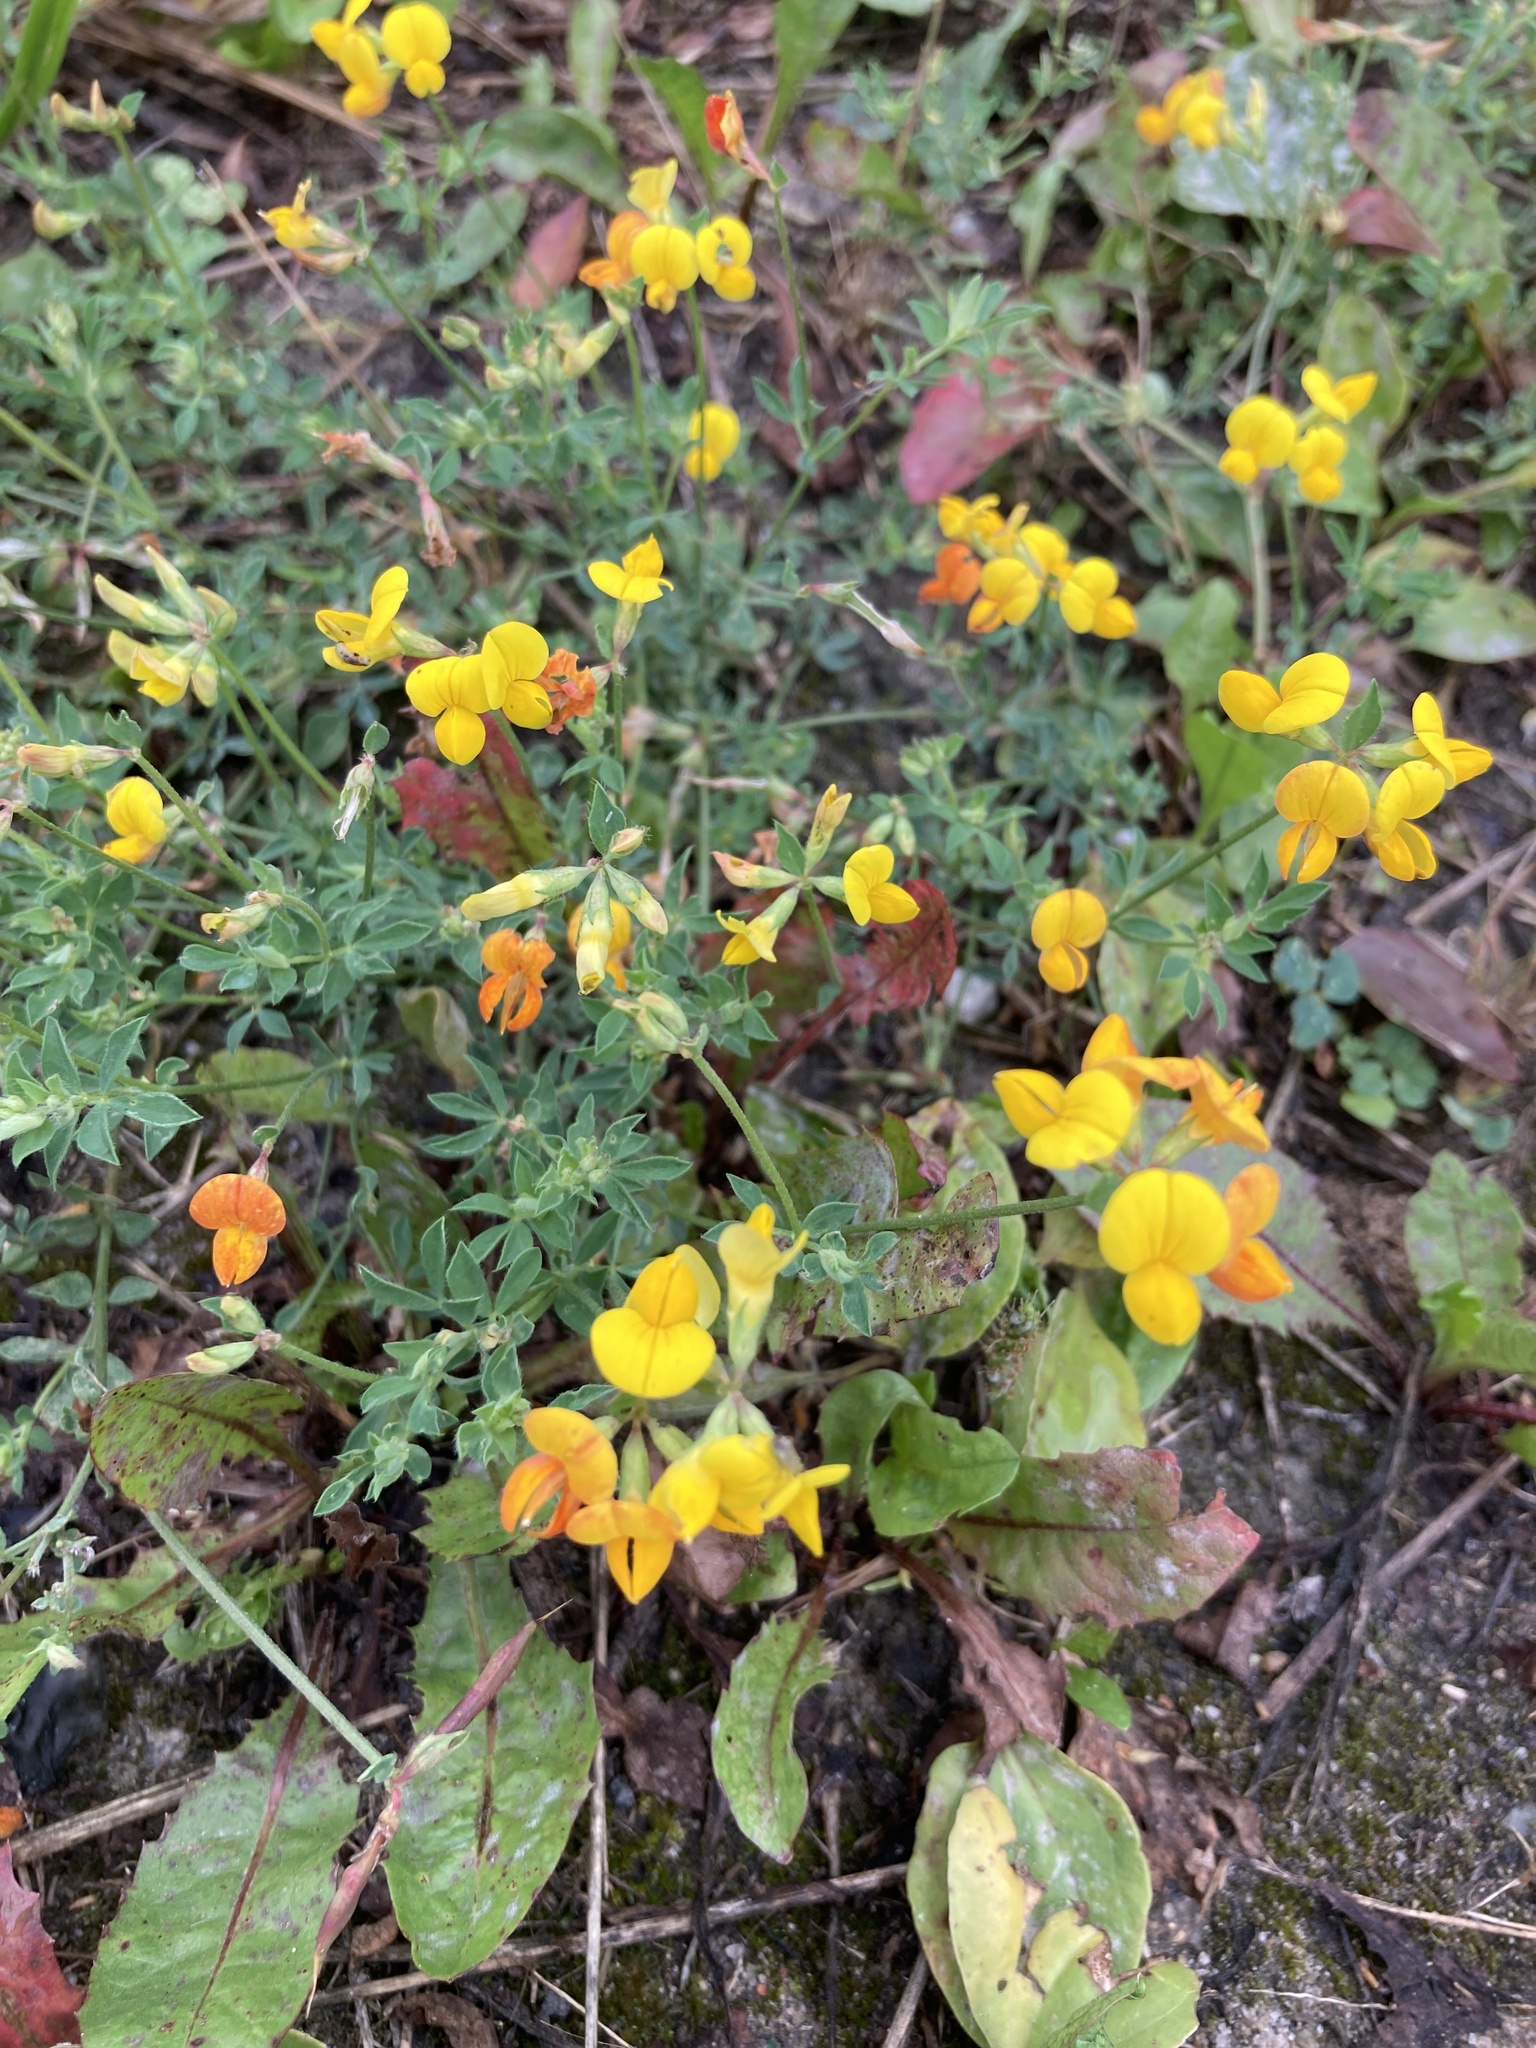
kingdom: Plantae
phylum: Tracheophyta
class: Magnoliopsida
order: Fabales
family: Fabaceae
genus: Lotus
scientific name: Lotus corniculatus
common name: Common bird's-foot-trefoil
